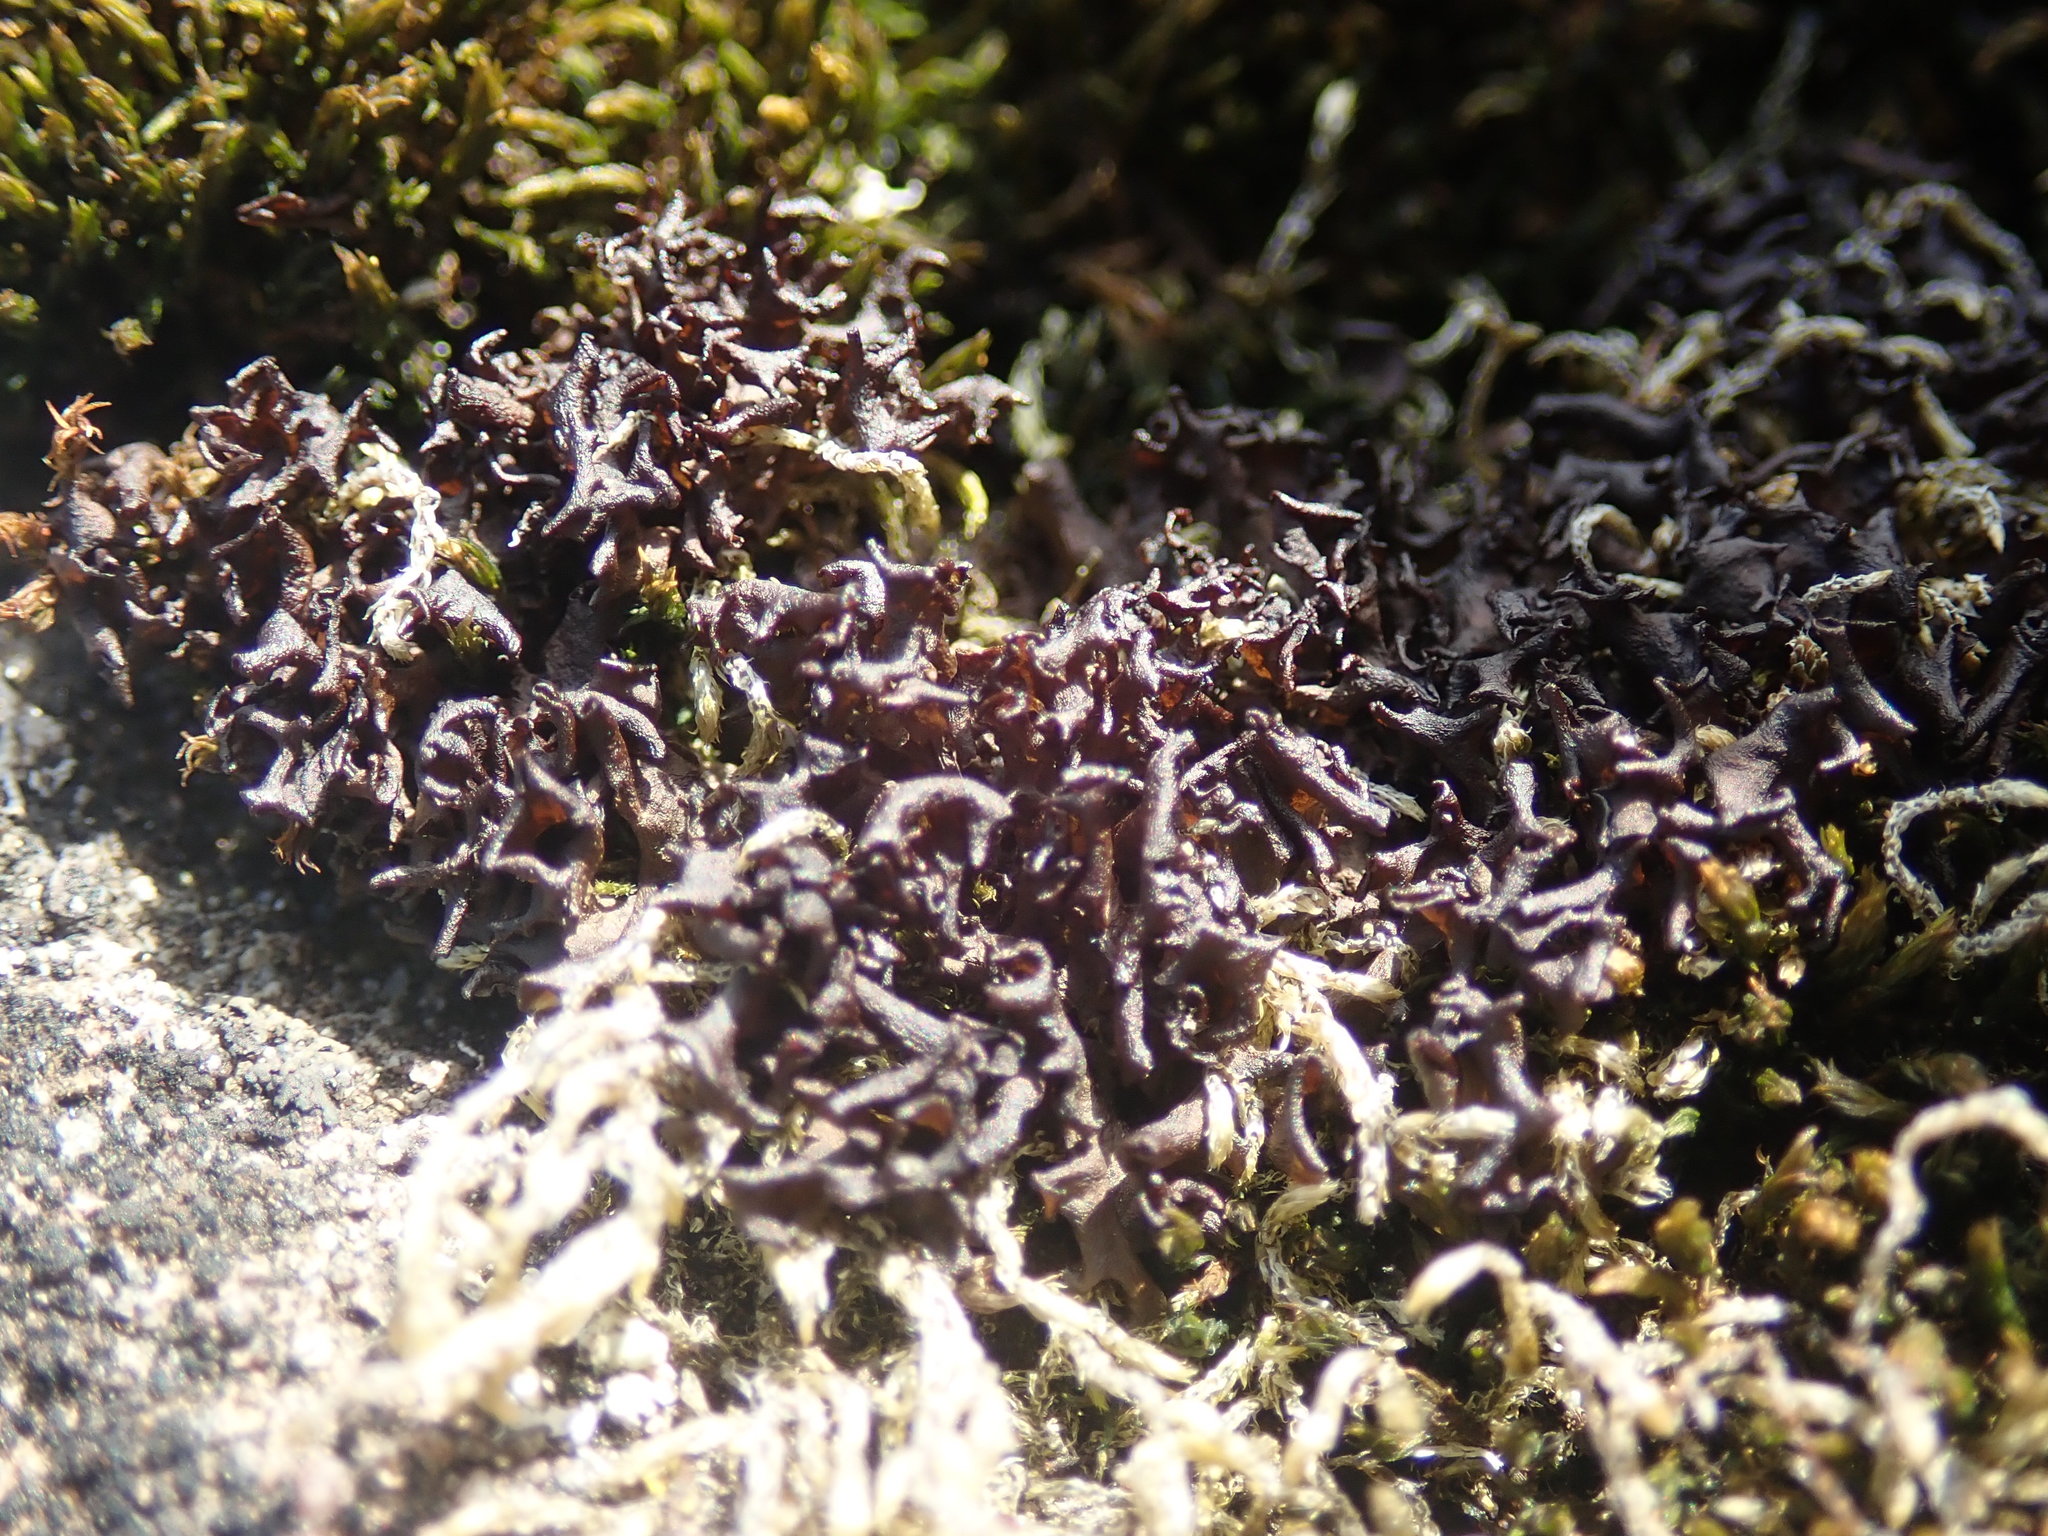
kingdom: Fungi
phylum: Ascomycota
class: Lecanoromycetes
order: Peltigerales
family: Collemataceae
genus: Scytinium
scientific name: Scytinium palmatum
